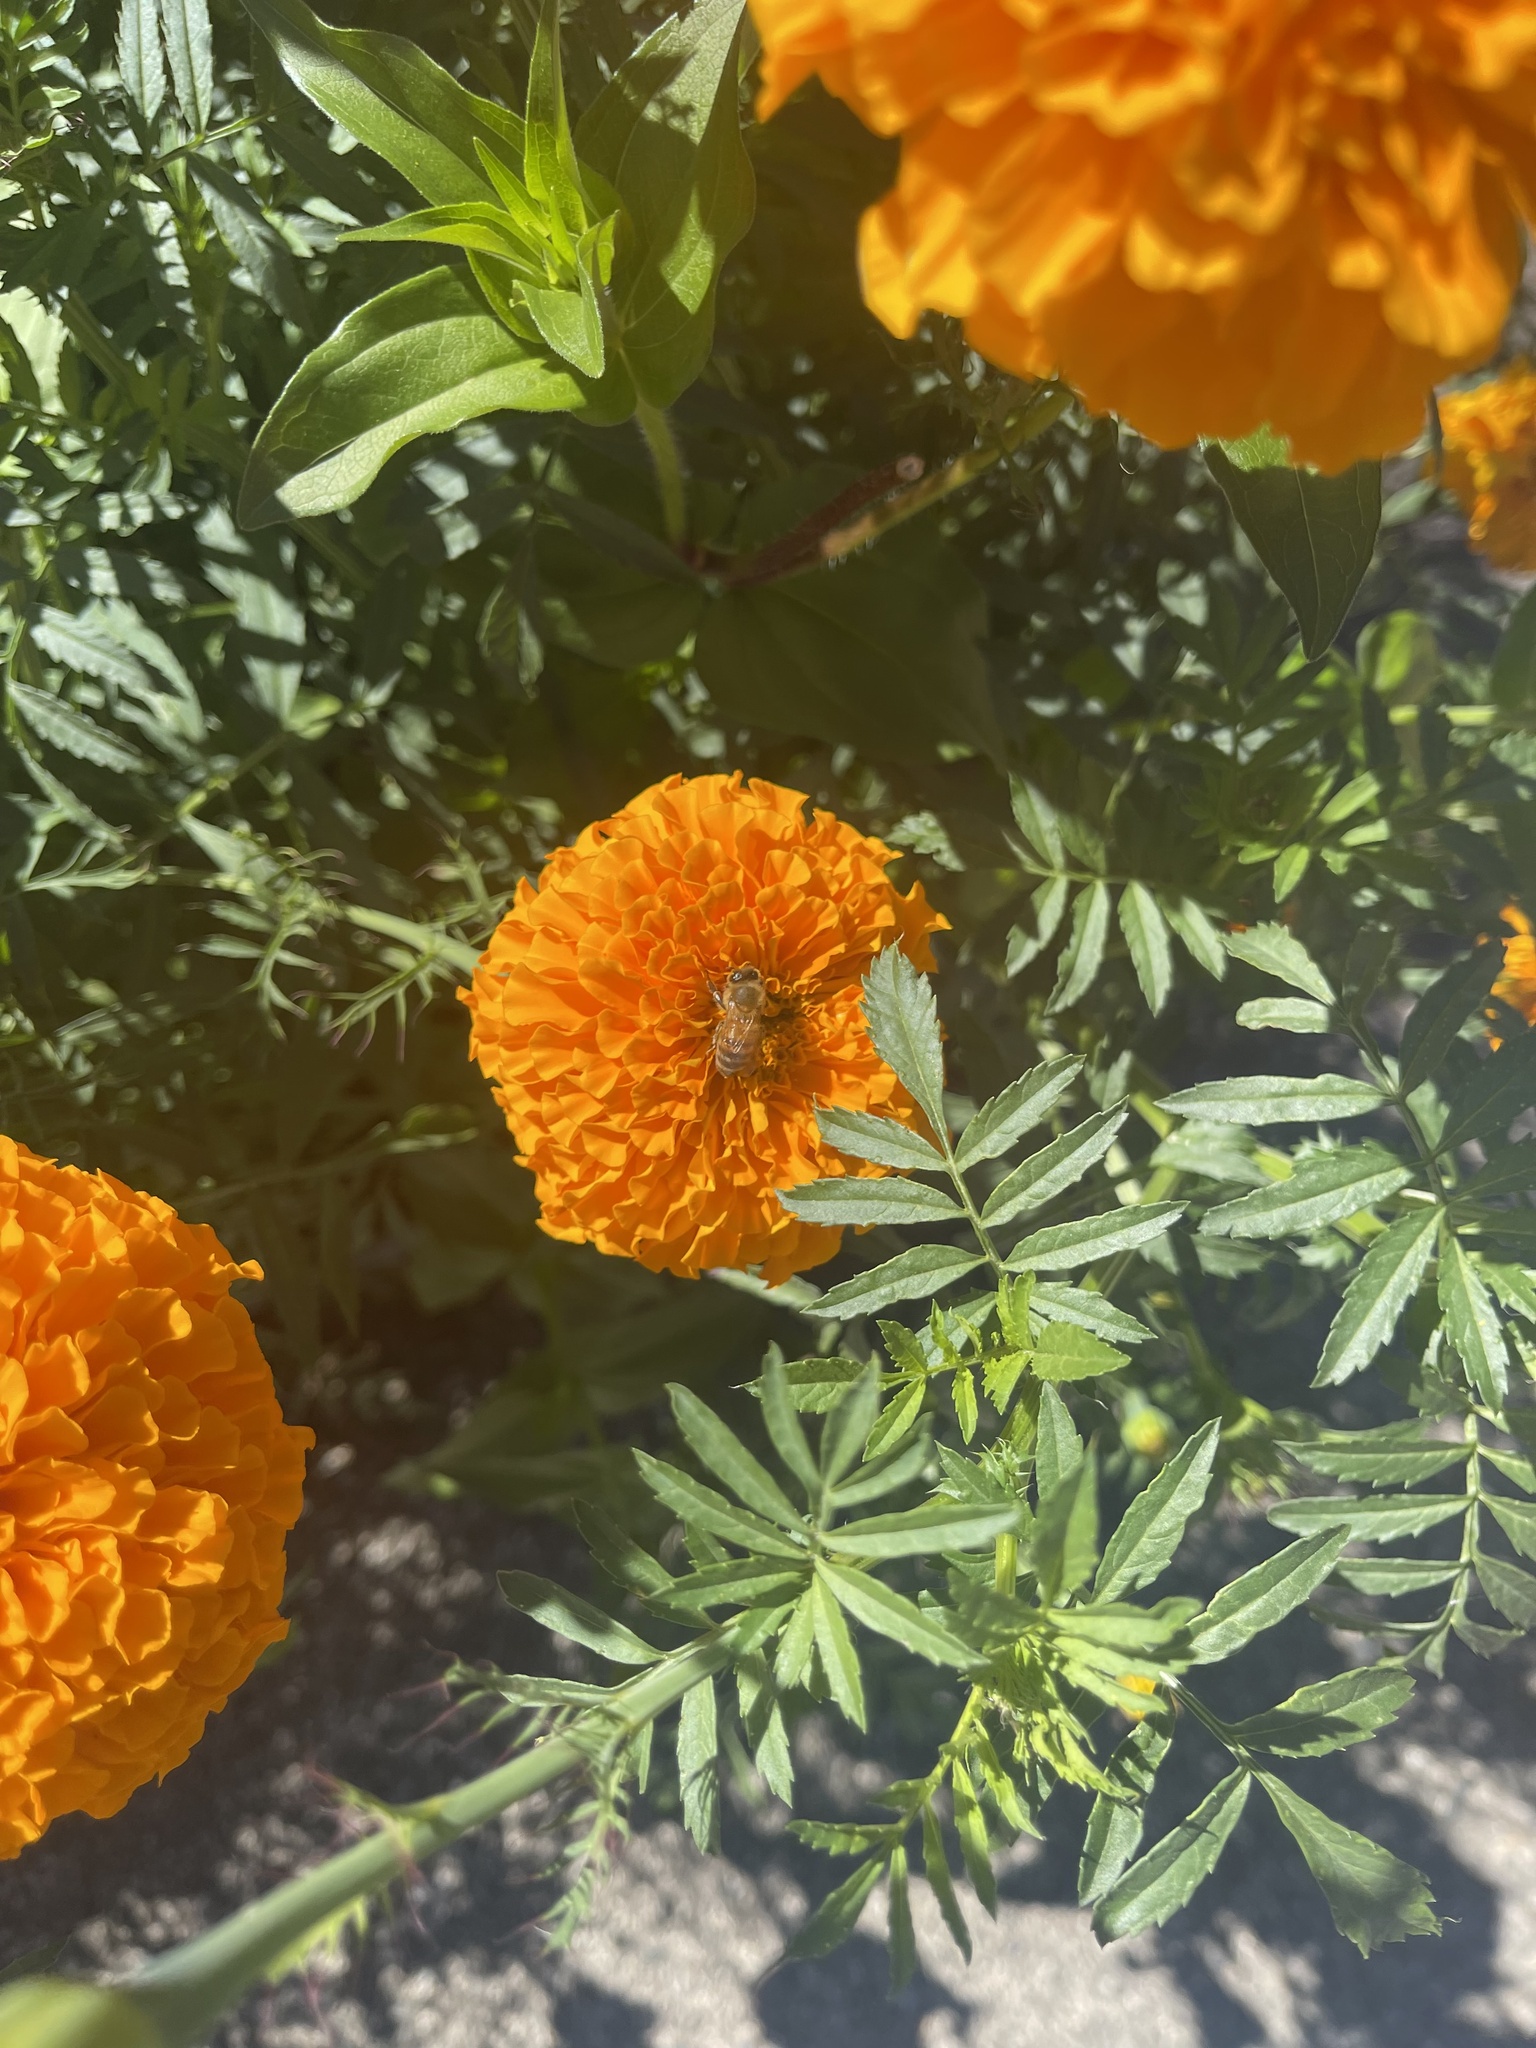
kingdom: Animalia
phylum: Arthropoda
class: Insecta
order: Hymenoptera
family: Apidae
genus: Apis
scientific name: Apis mellifera
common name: Honey bee
